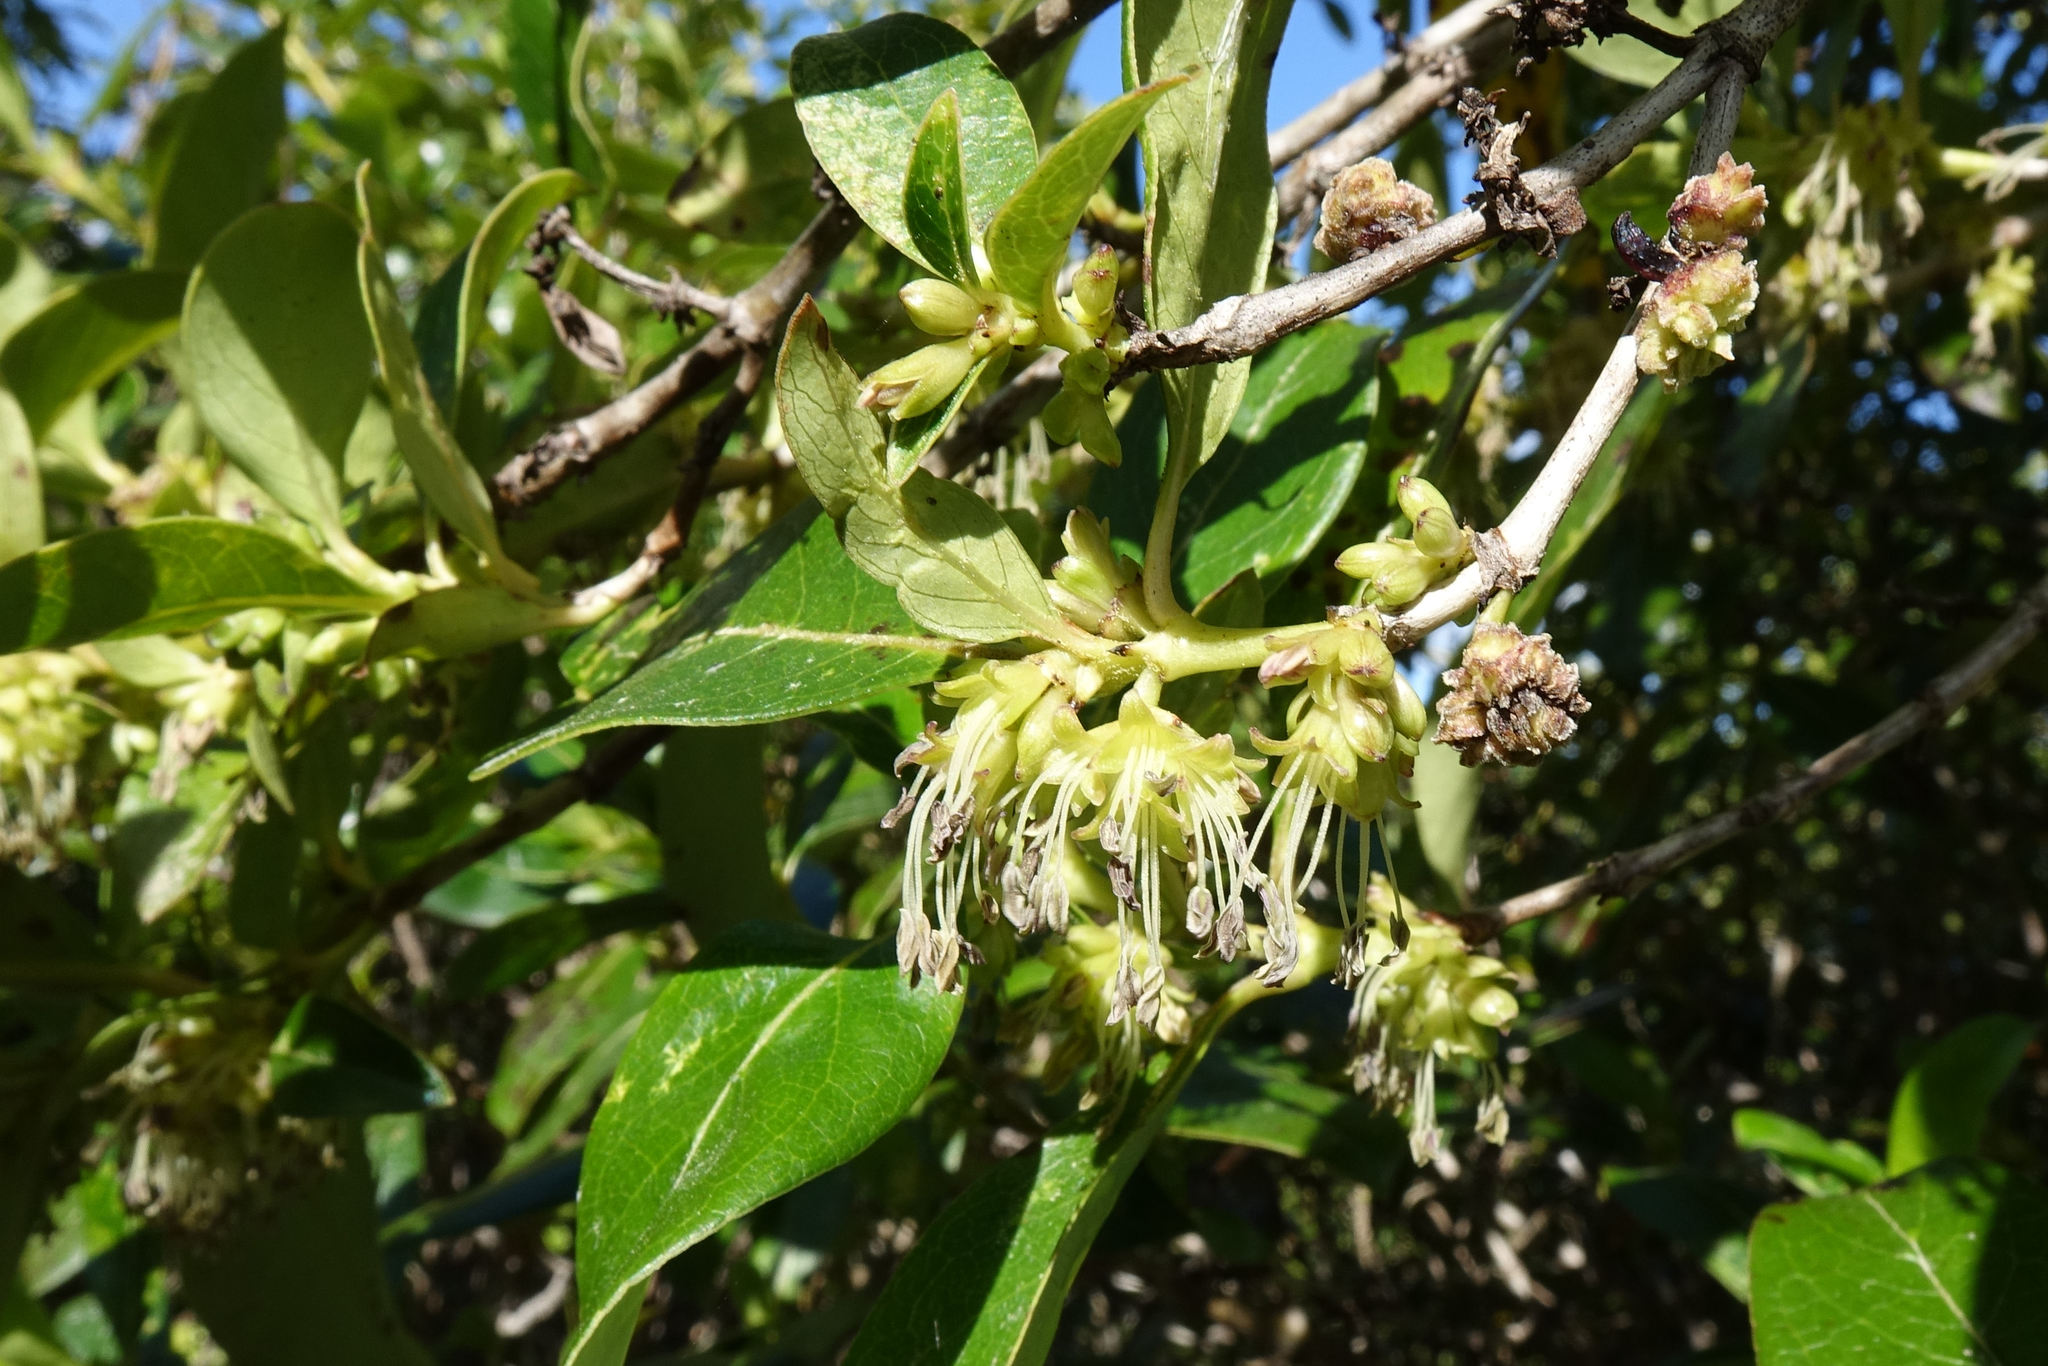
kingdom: Plantae
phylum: Tracheophyta
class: Magnoliopsida
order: Gentianales
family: Rubiaceae
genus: Coprosma
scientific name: Coprosma robusta
